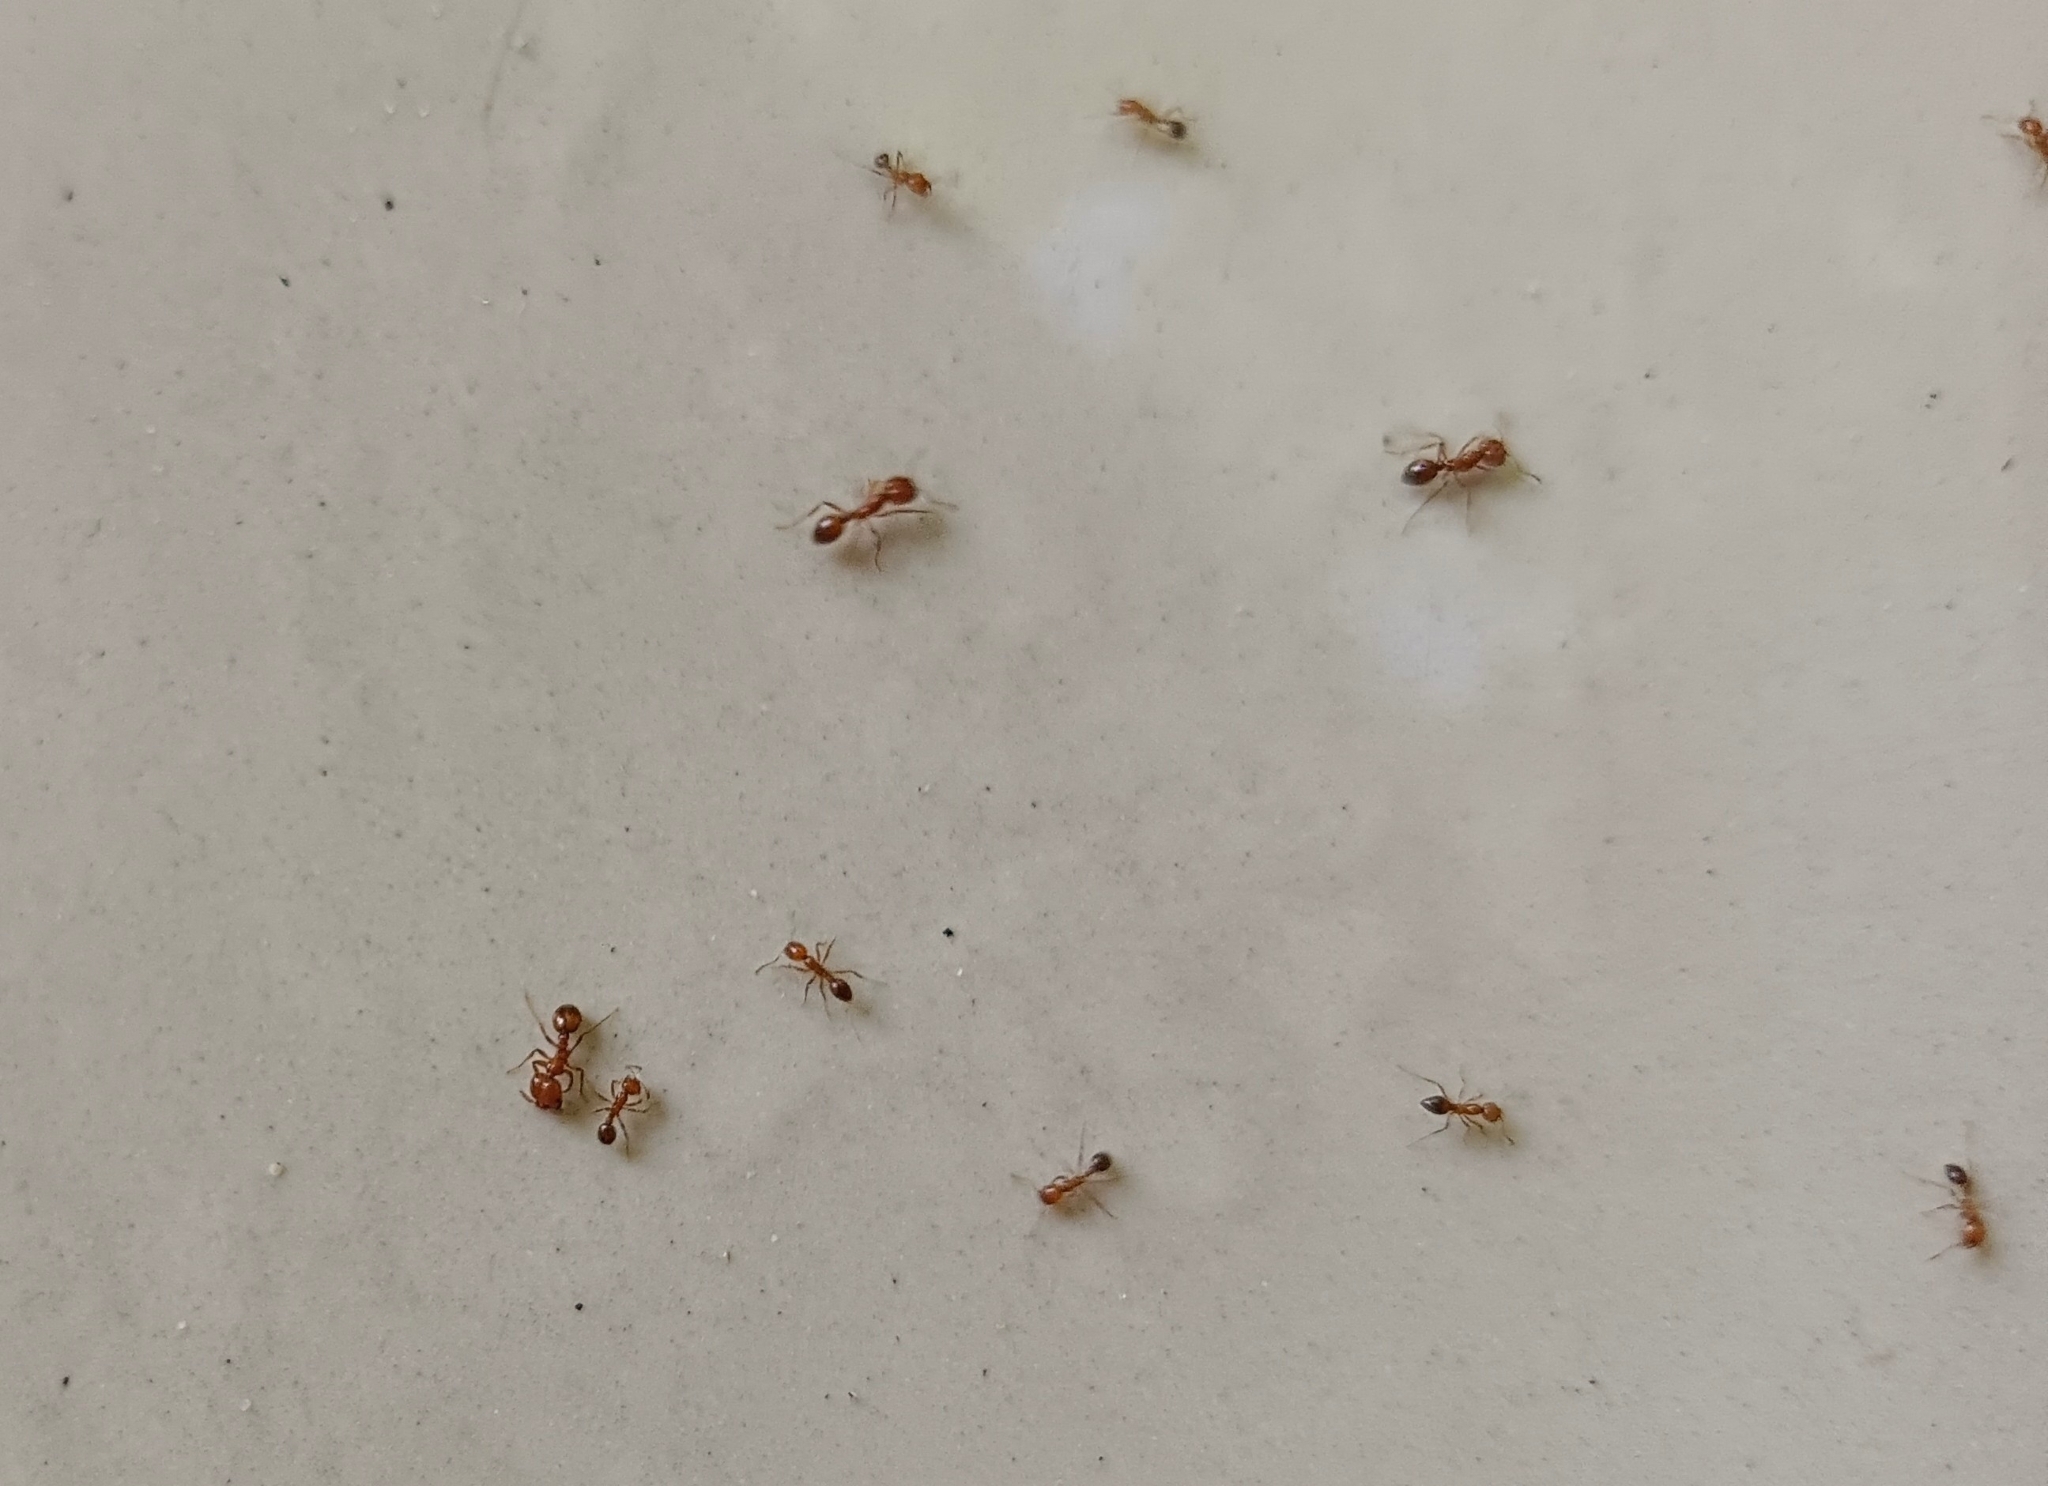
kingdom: Animalia
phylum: Arthropoda
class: Insecta
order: Hymenoptera
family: Formicidae
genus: Solenopsis
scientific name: Solenopsis geminata
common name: Tropical fire ant
